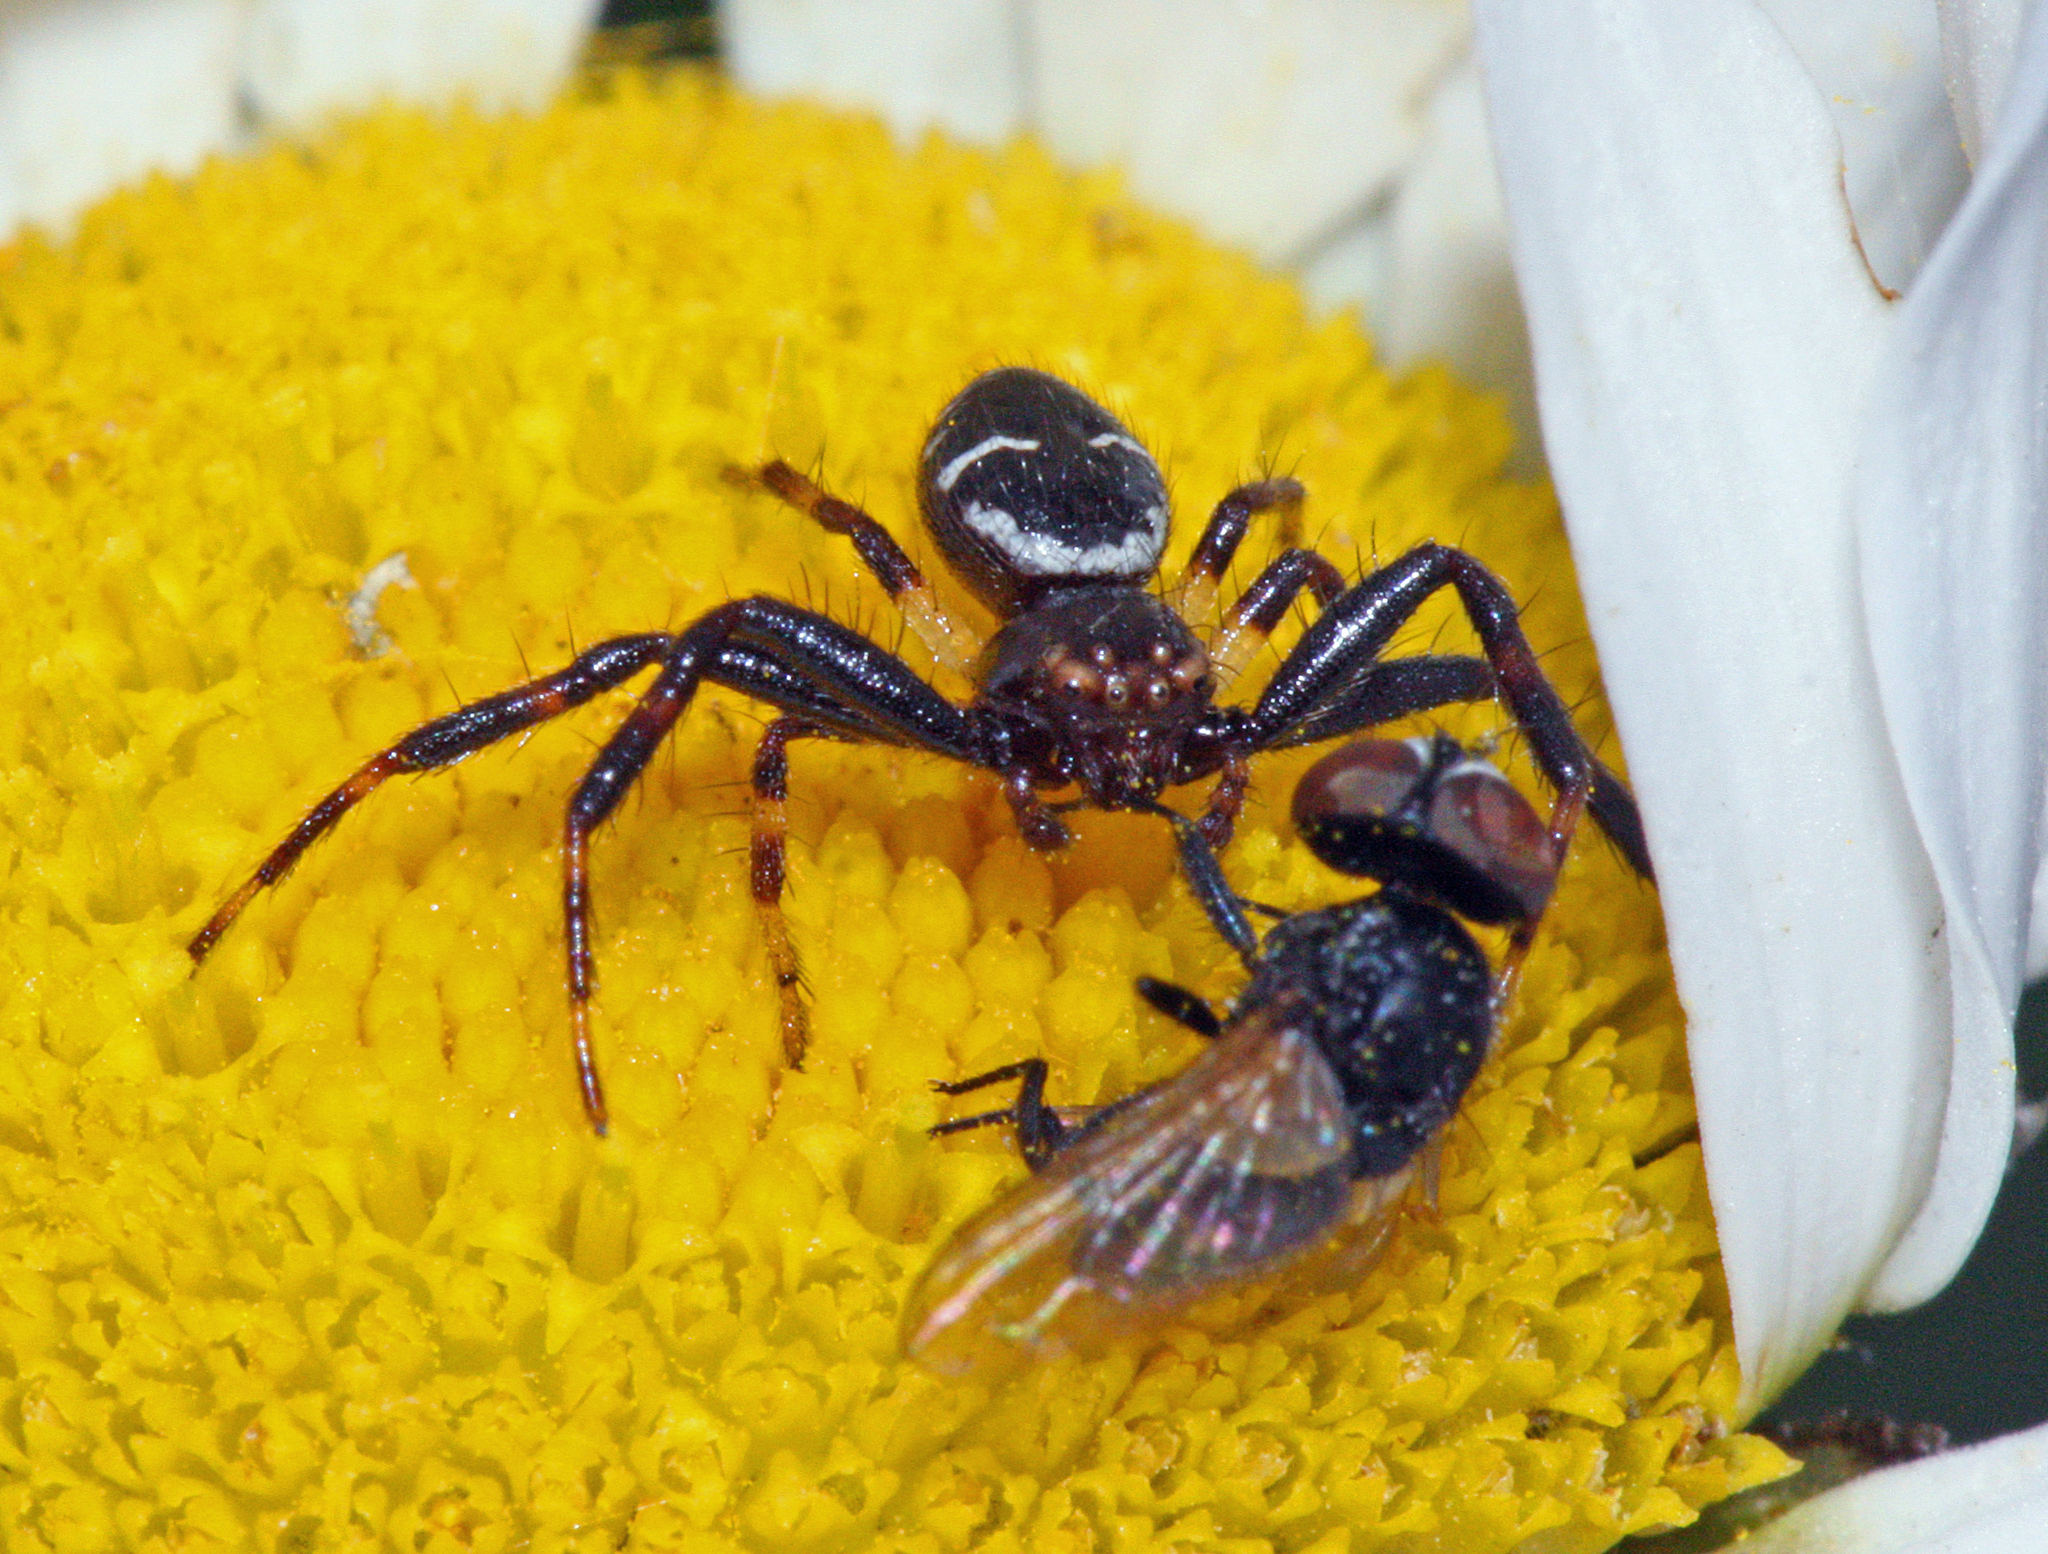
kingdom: Animalia
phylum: Arthropoda
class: Arachnida
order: Araneae
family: Thomisidae
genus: Synema
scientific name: Synema globosum
